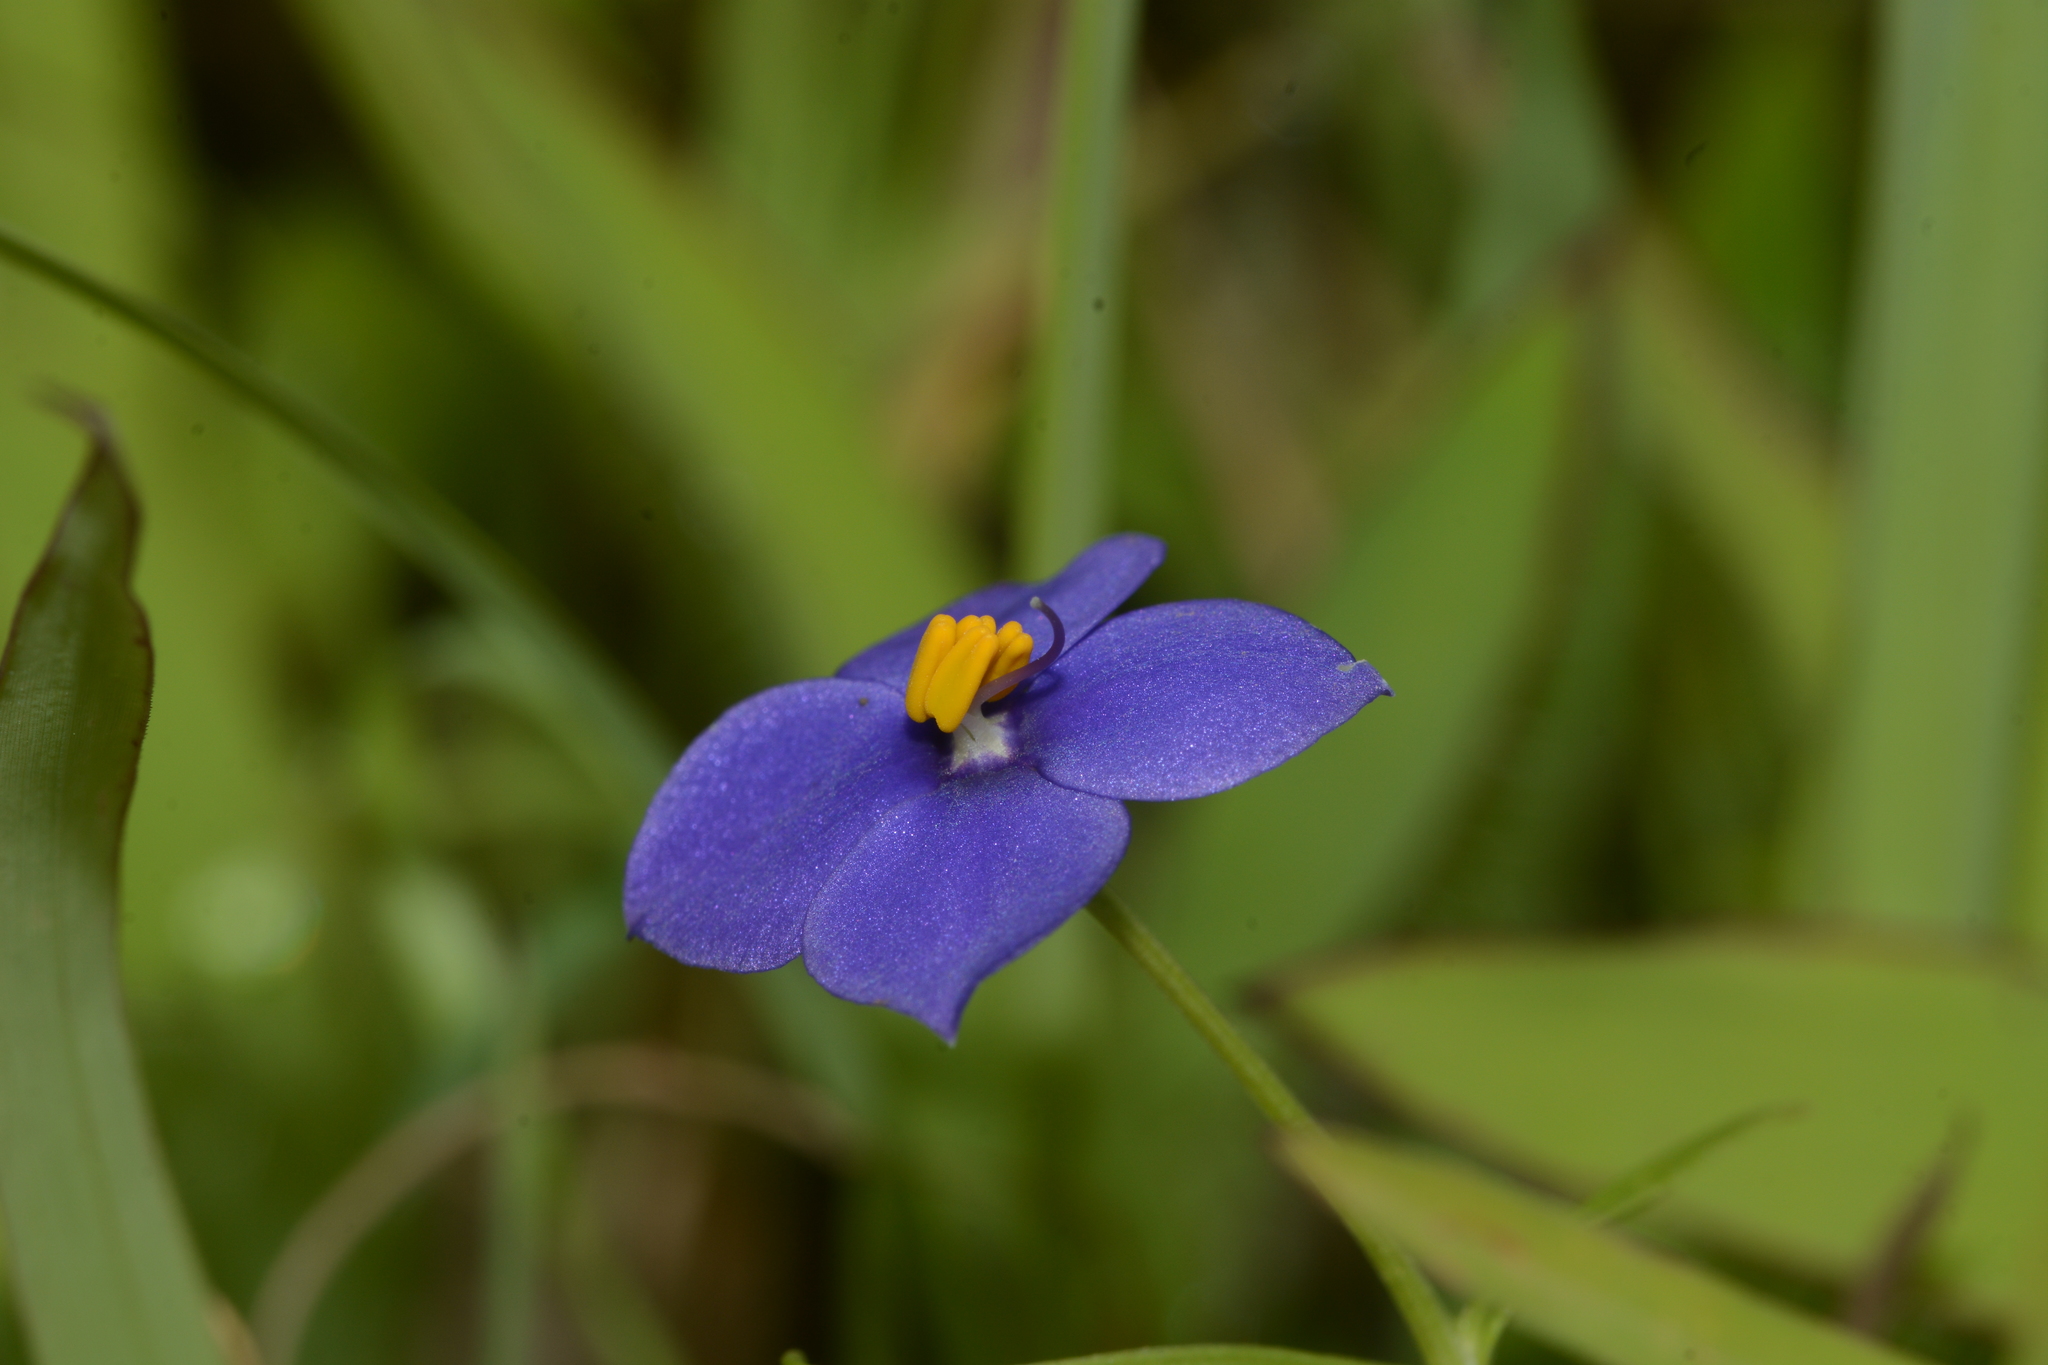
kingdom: Plantae
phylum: Tracheophyta
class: Magnoliopsida
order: Gentianales
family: Gentianaceae
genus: Exacum
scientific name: Exacum pumilum
